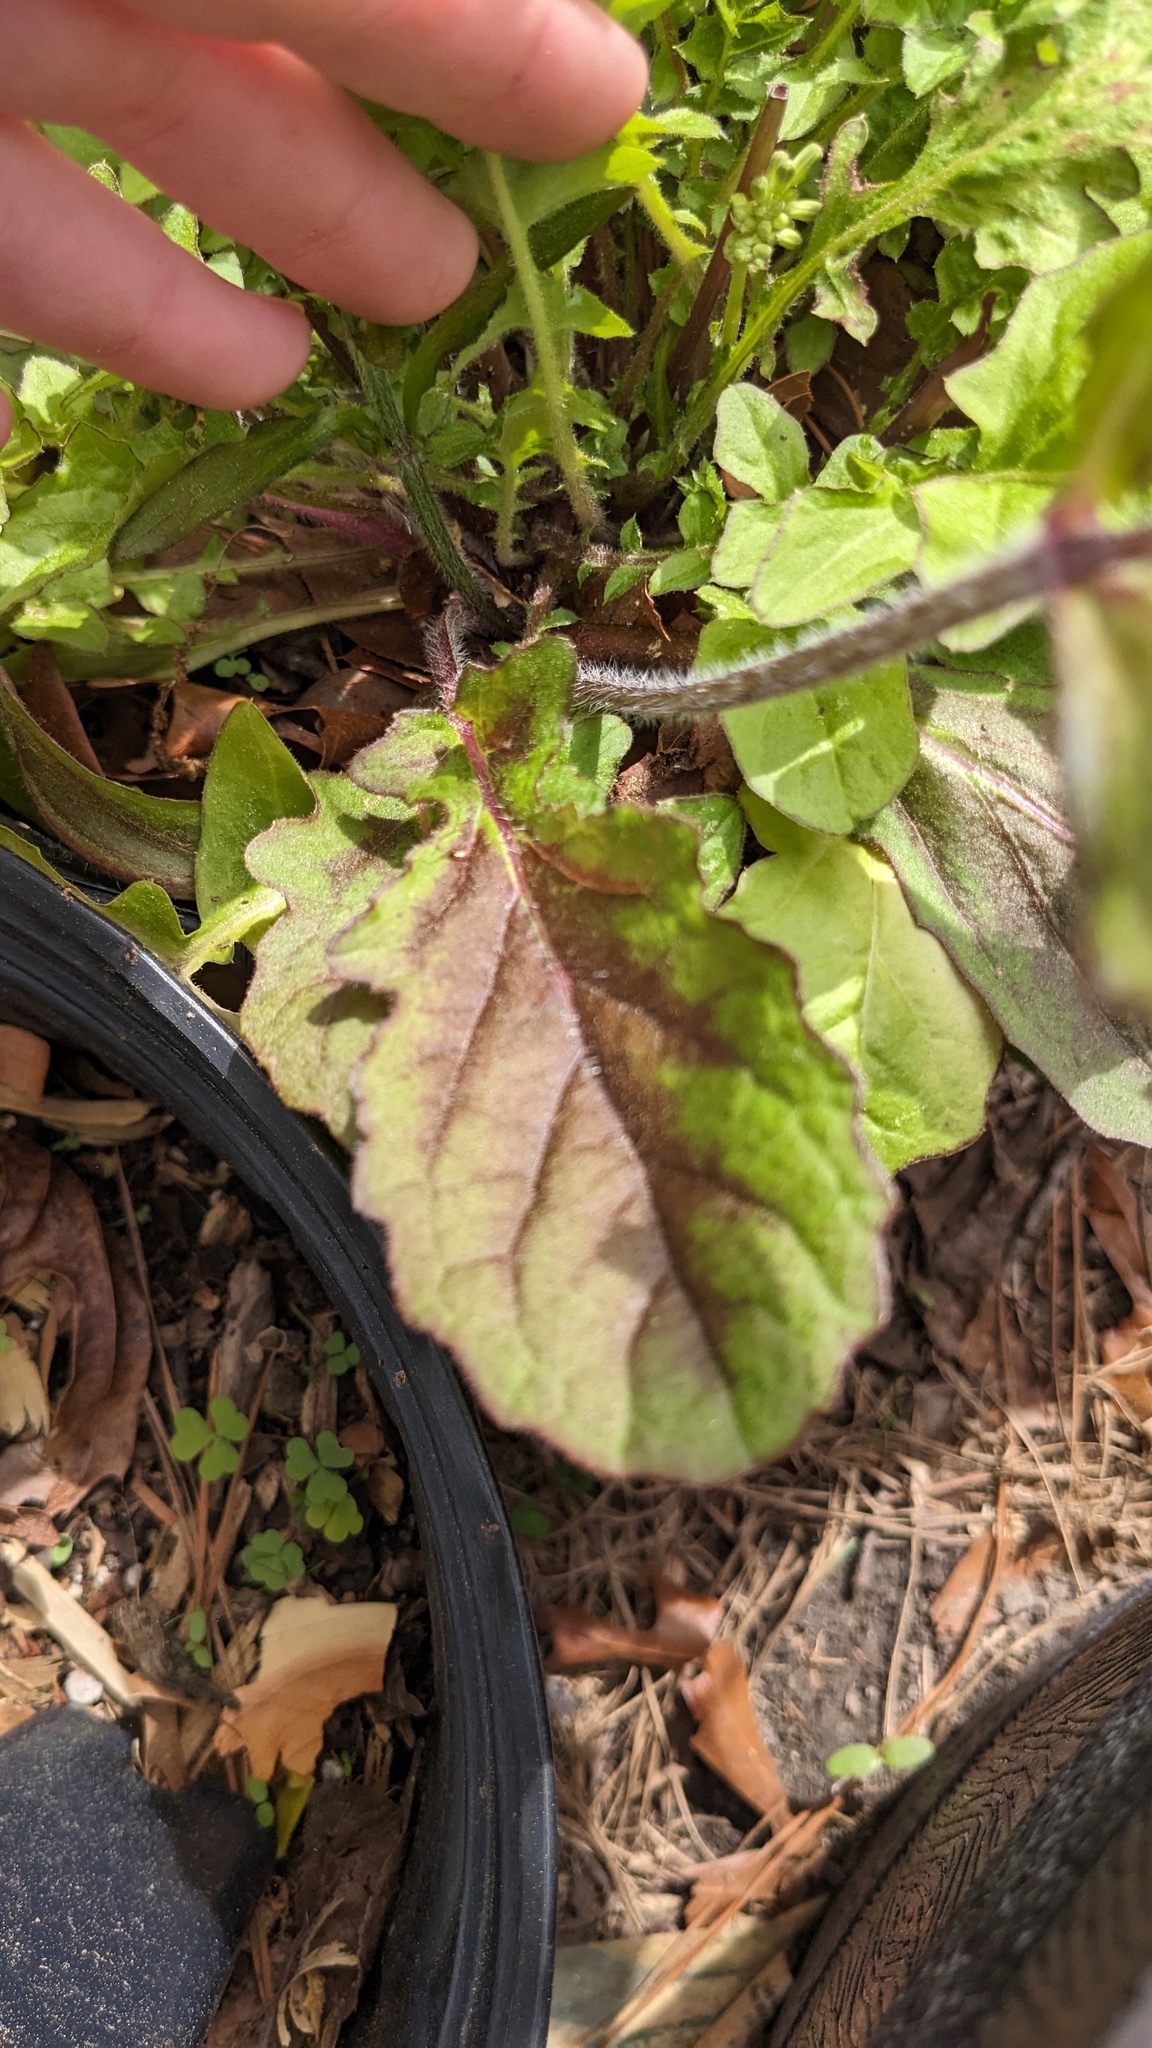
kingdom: Plantae
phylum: Tracheophyta
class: Magnoliopsida
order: Lamiales
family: Lamiaceae
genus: Salvia
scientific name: Salvia lyrata
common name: Cancerweed
